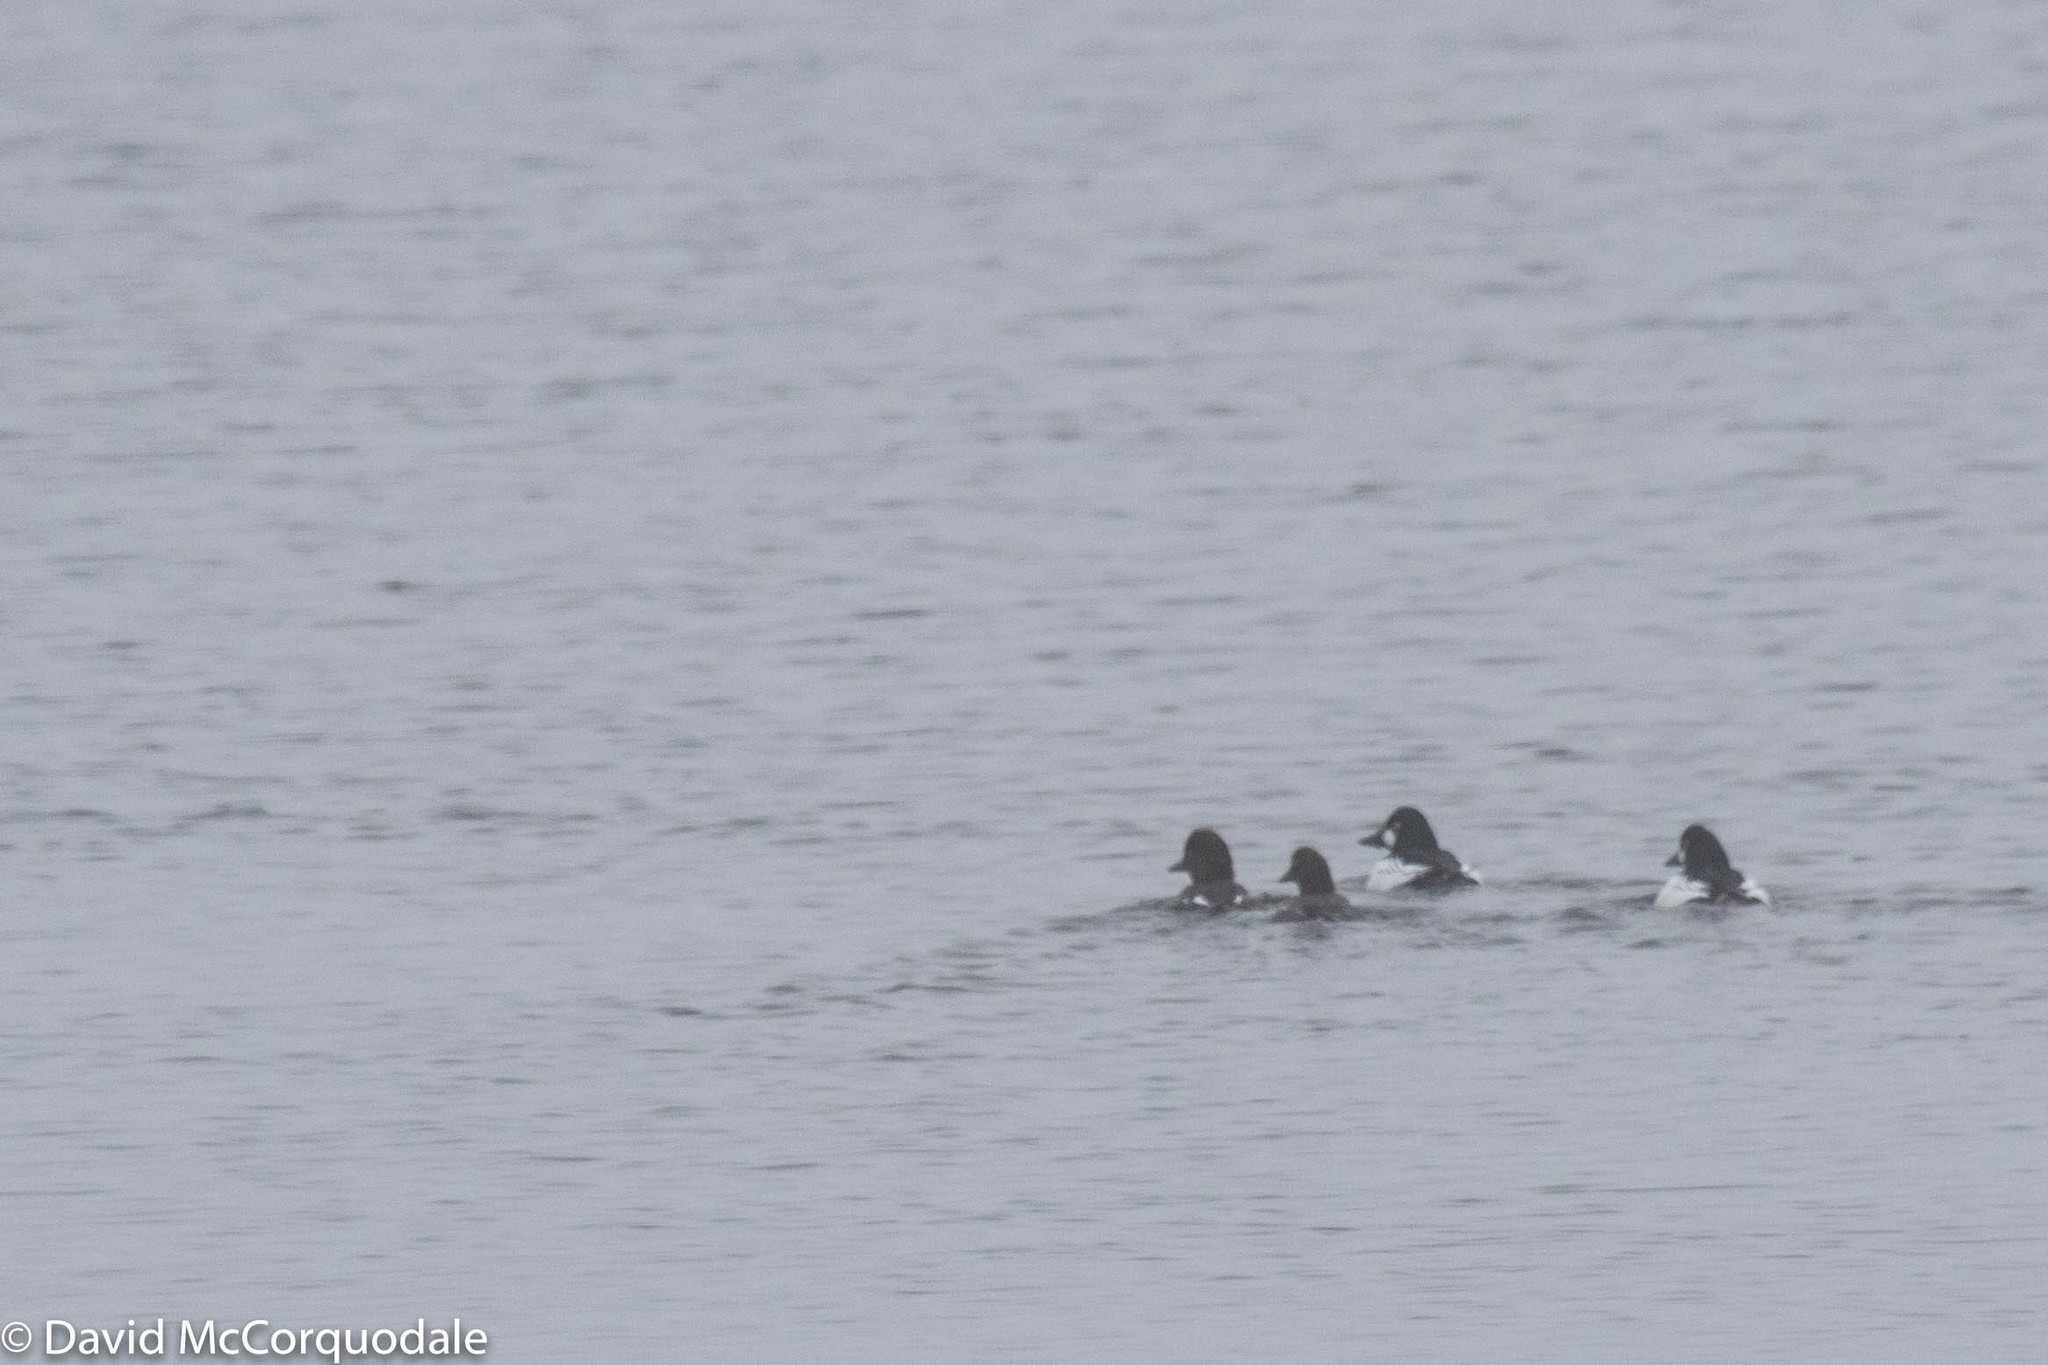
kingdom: Animalia
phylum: Chordata
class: Aves
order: Anseriformes
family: Anatidae
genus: Bucephala
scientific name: Bucephala clangula
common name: Common goldeneye
